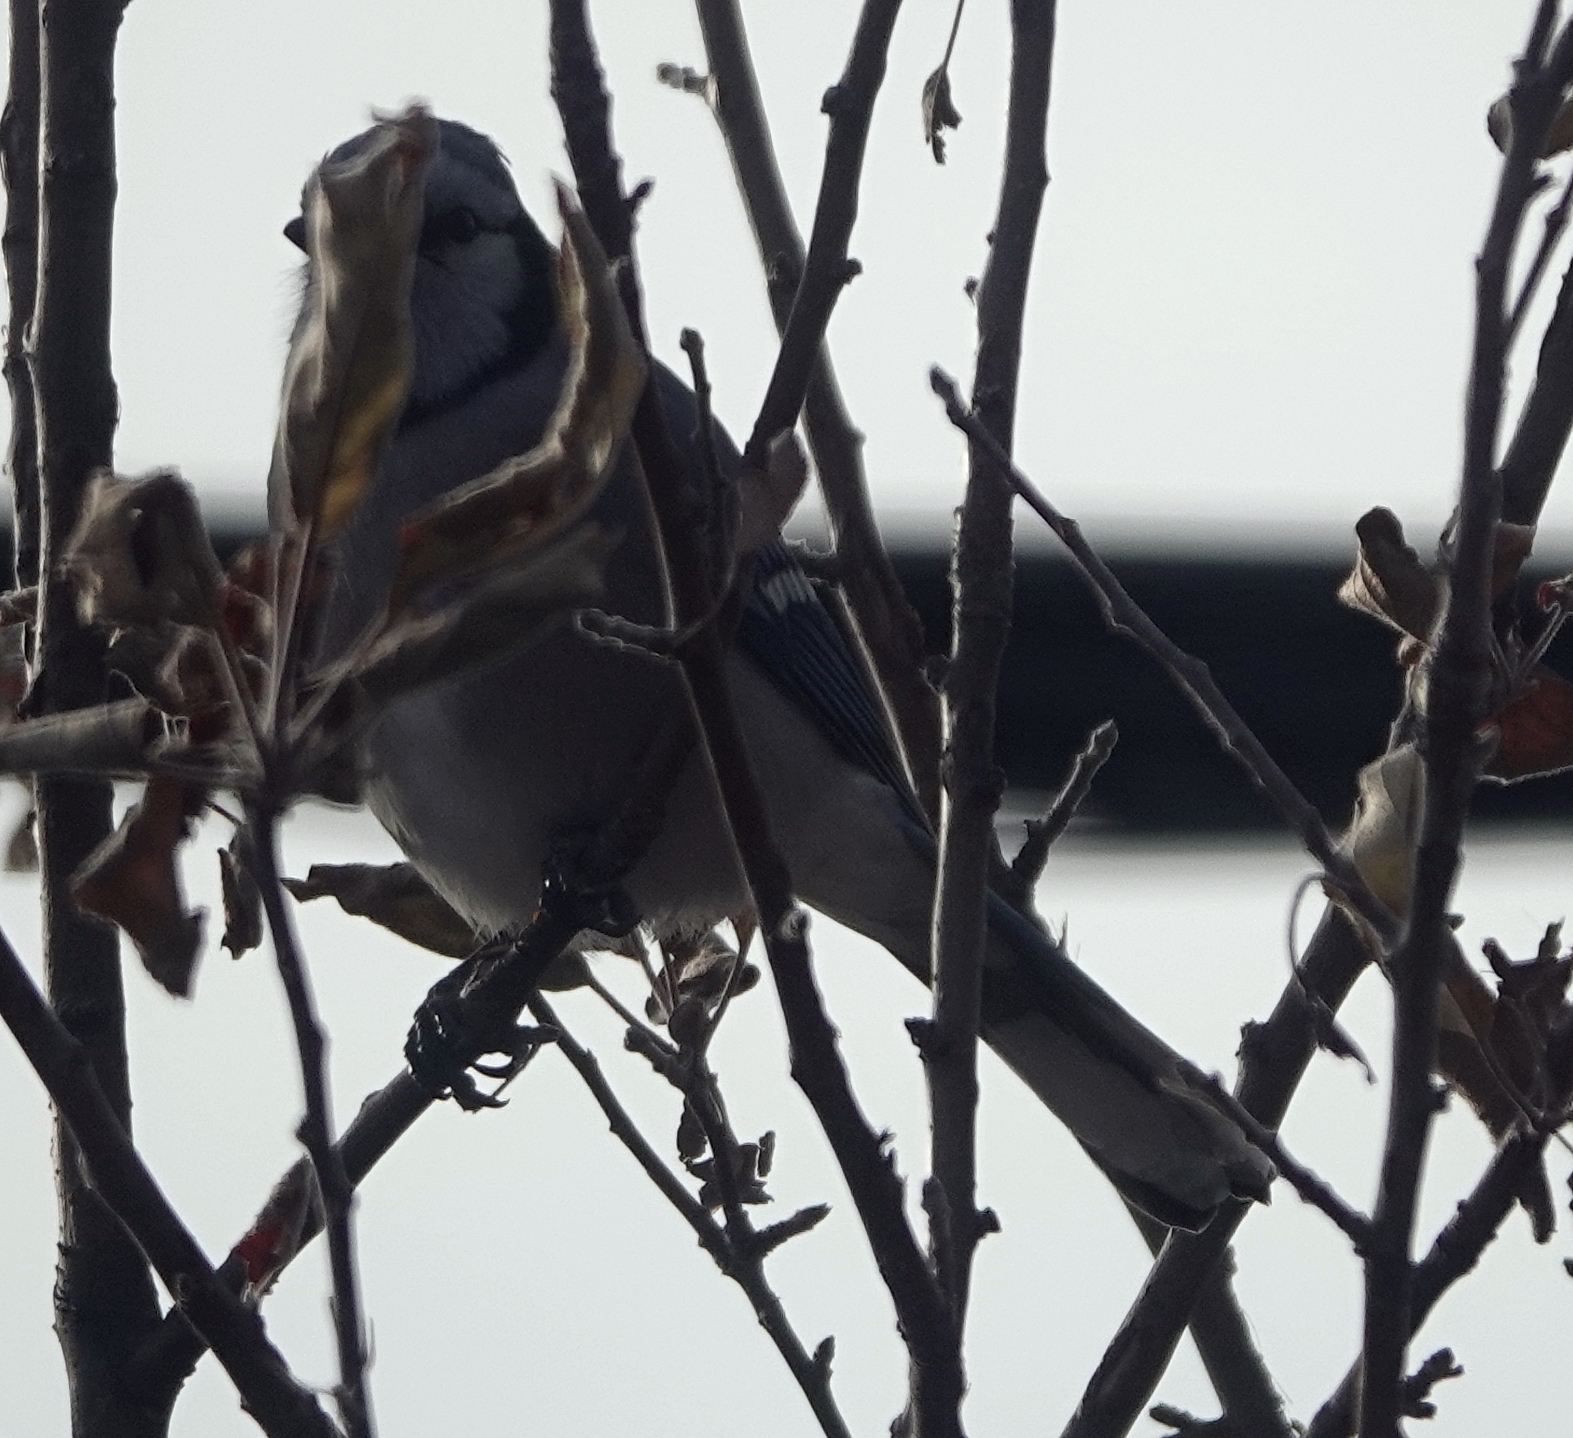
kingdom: Animalia
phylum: Chordata
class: Aves
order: Passeriformes
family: Corvidae
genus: Cyanocitta
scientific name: Cyanocitta cristata
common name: Blue jay
